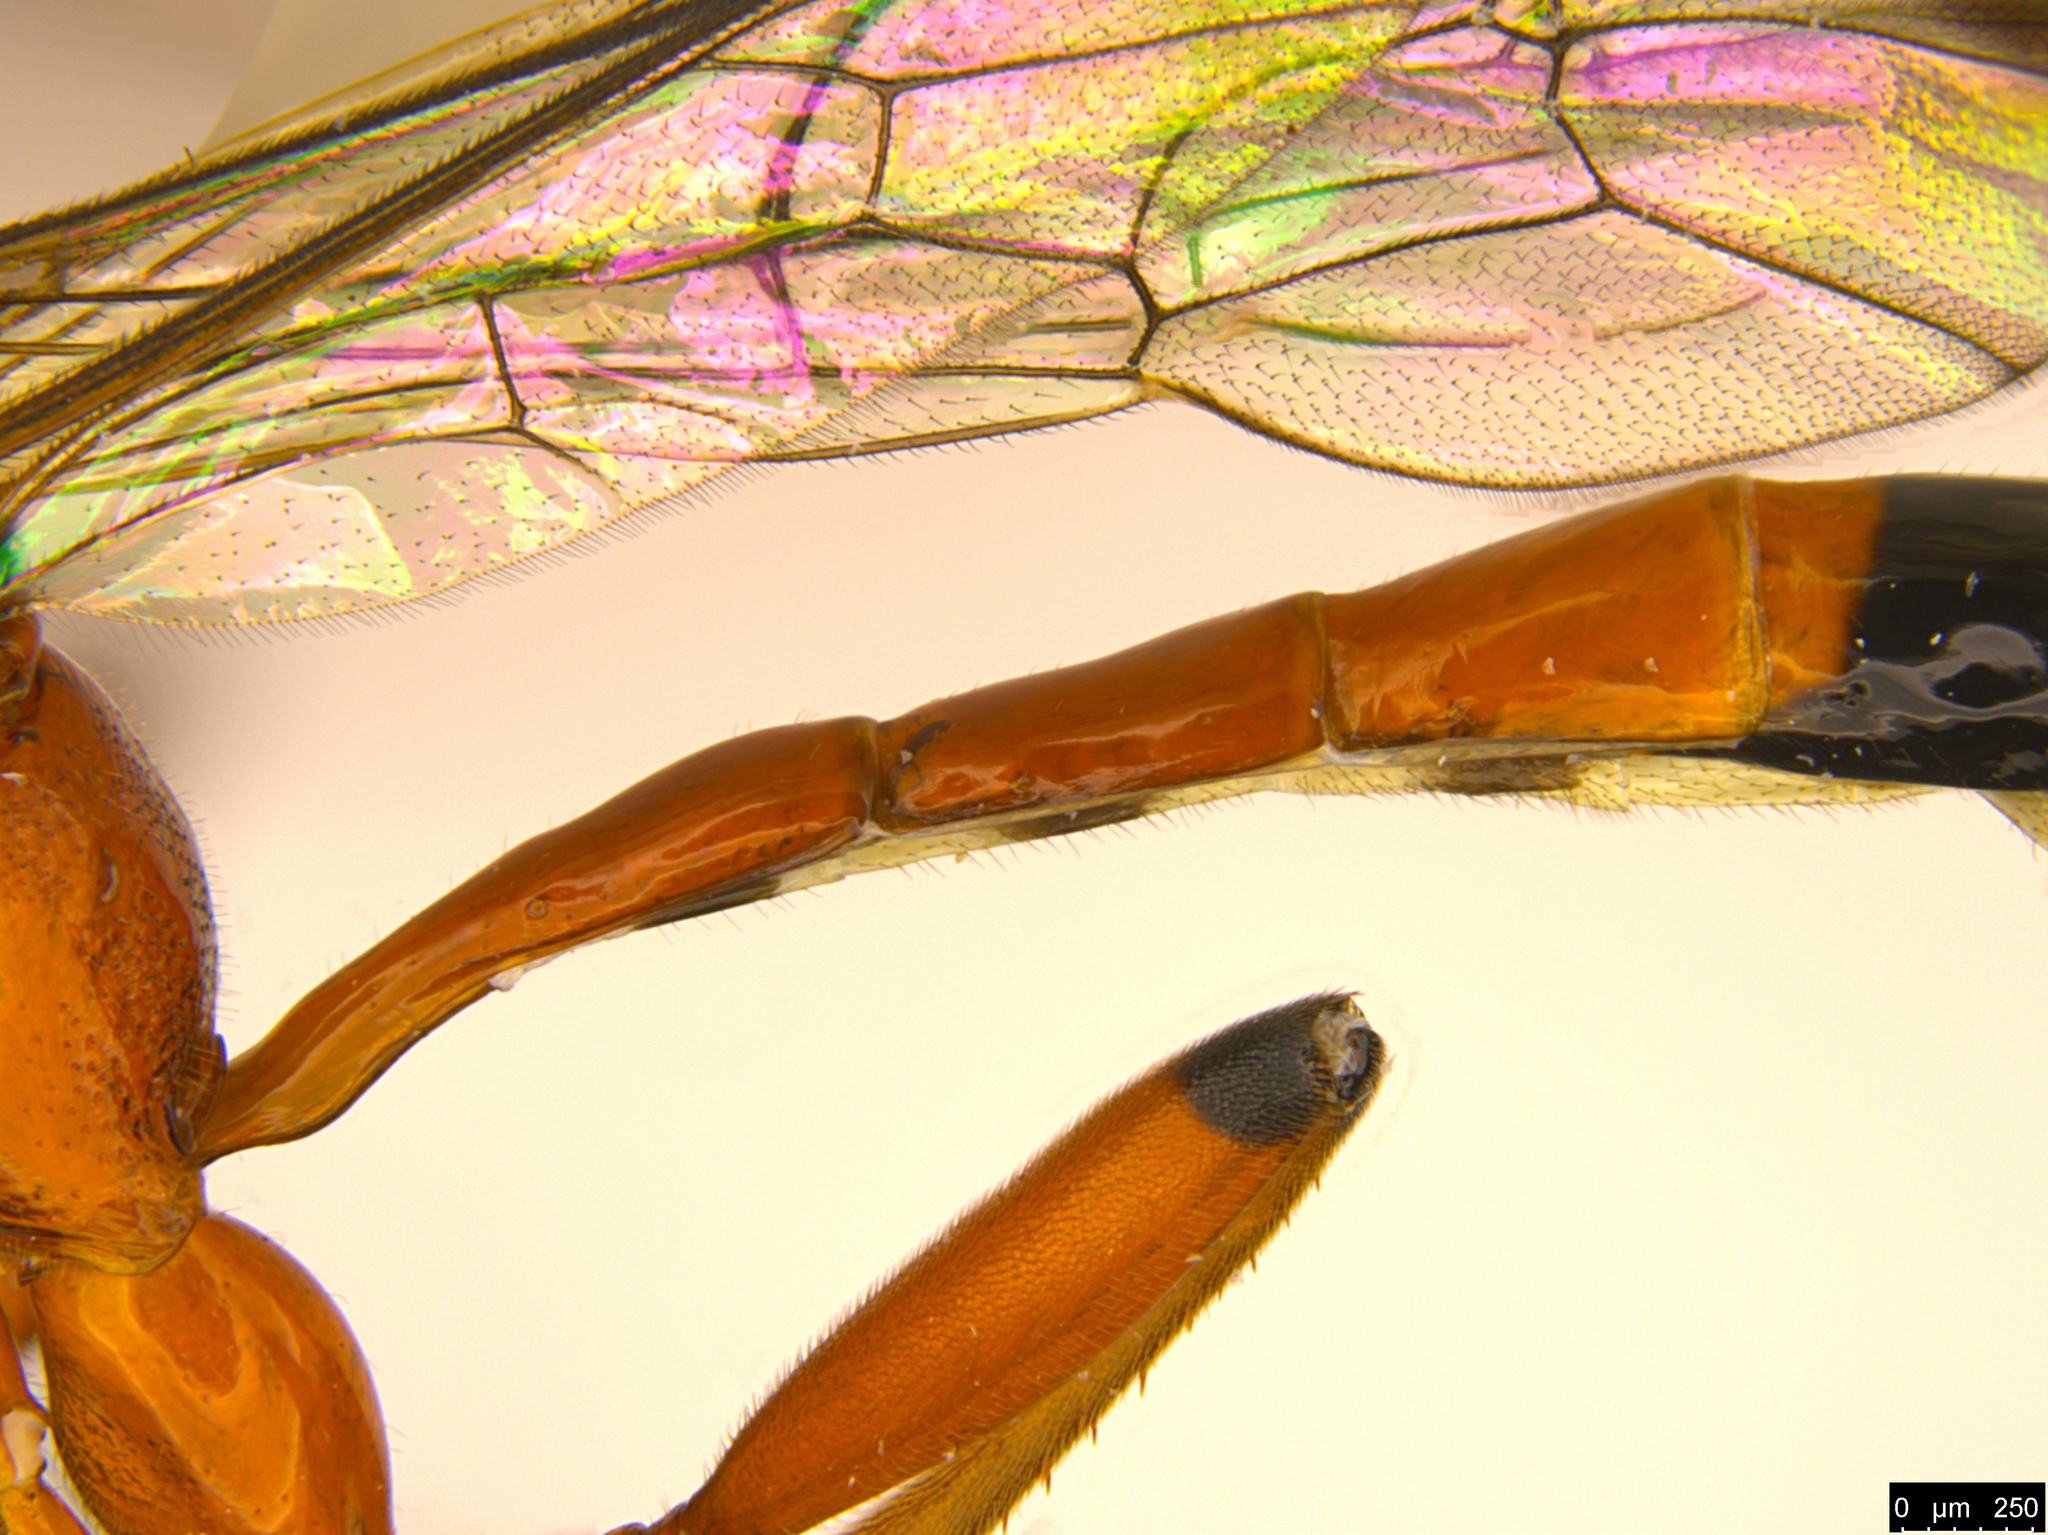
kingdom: Animalia
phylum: Arthropoda
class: Insecta
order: Hymenoptera
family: Ichneumonidae
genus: Leptobatopsis
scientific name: Leptobatopsis mesominiata
